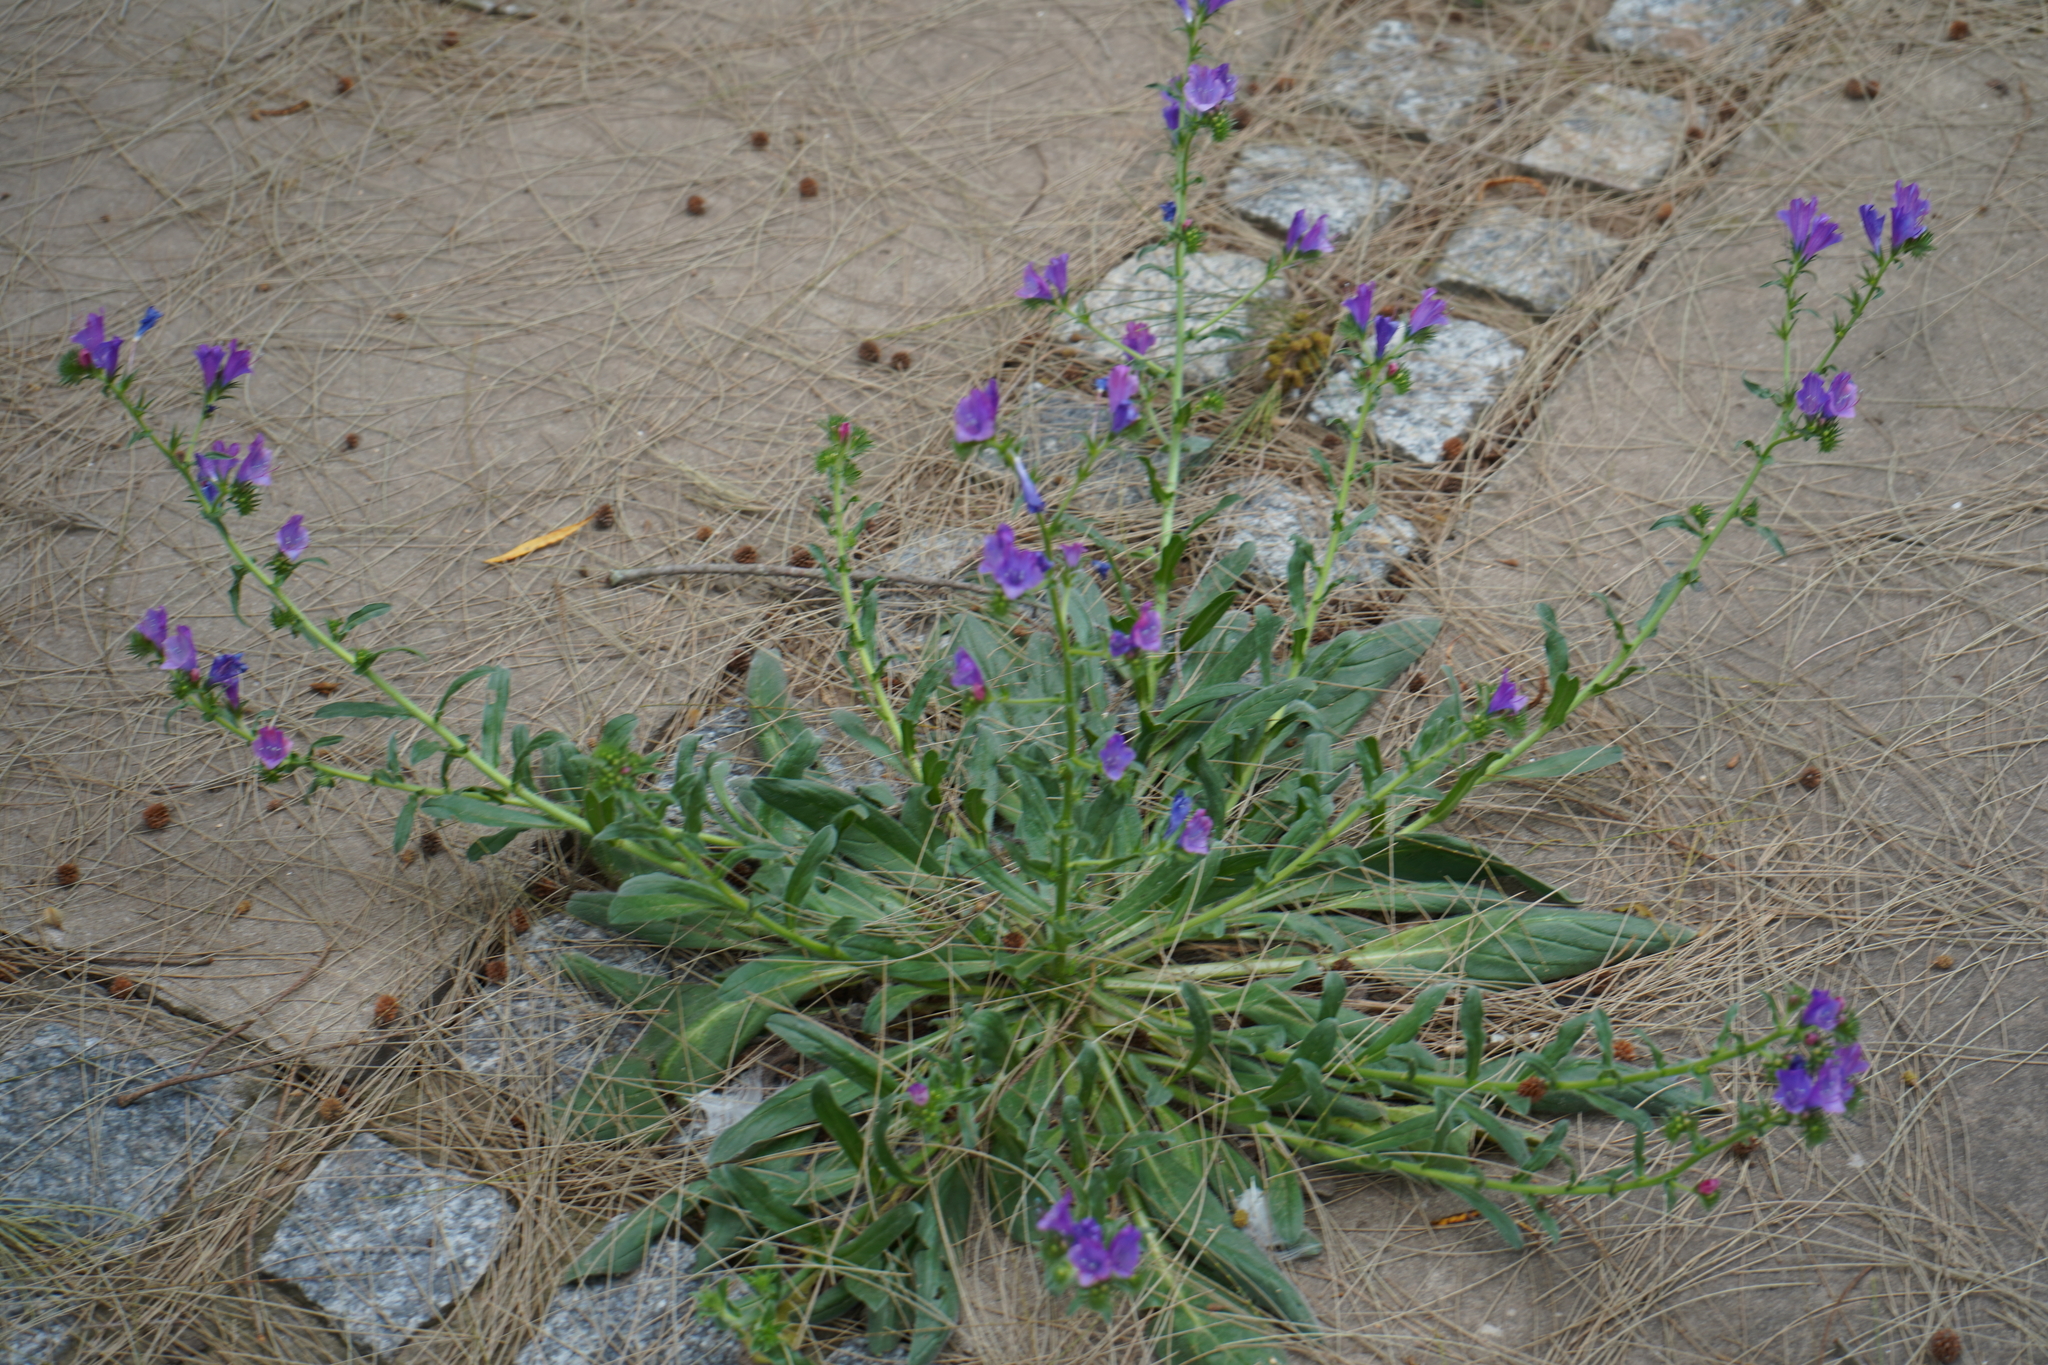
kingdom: Plantae
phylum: Tracheophyta
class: Magnoliopsida
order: Boraginales
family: Boraginaceae
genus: Echium
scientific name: Echium plantagineum
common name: Purple viper's-bugloss
